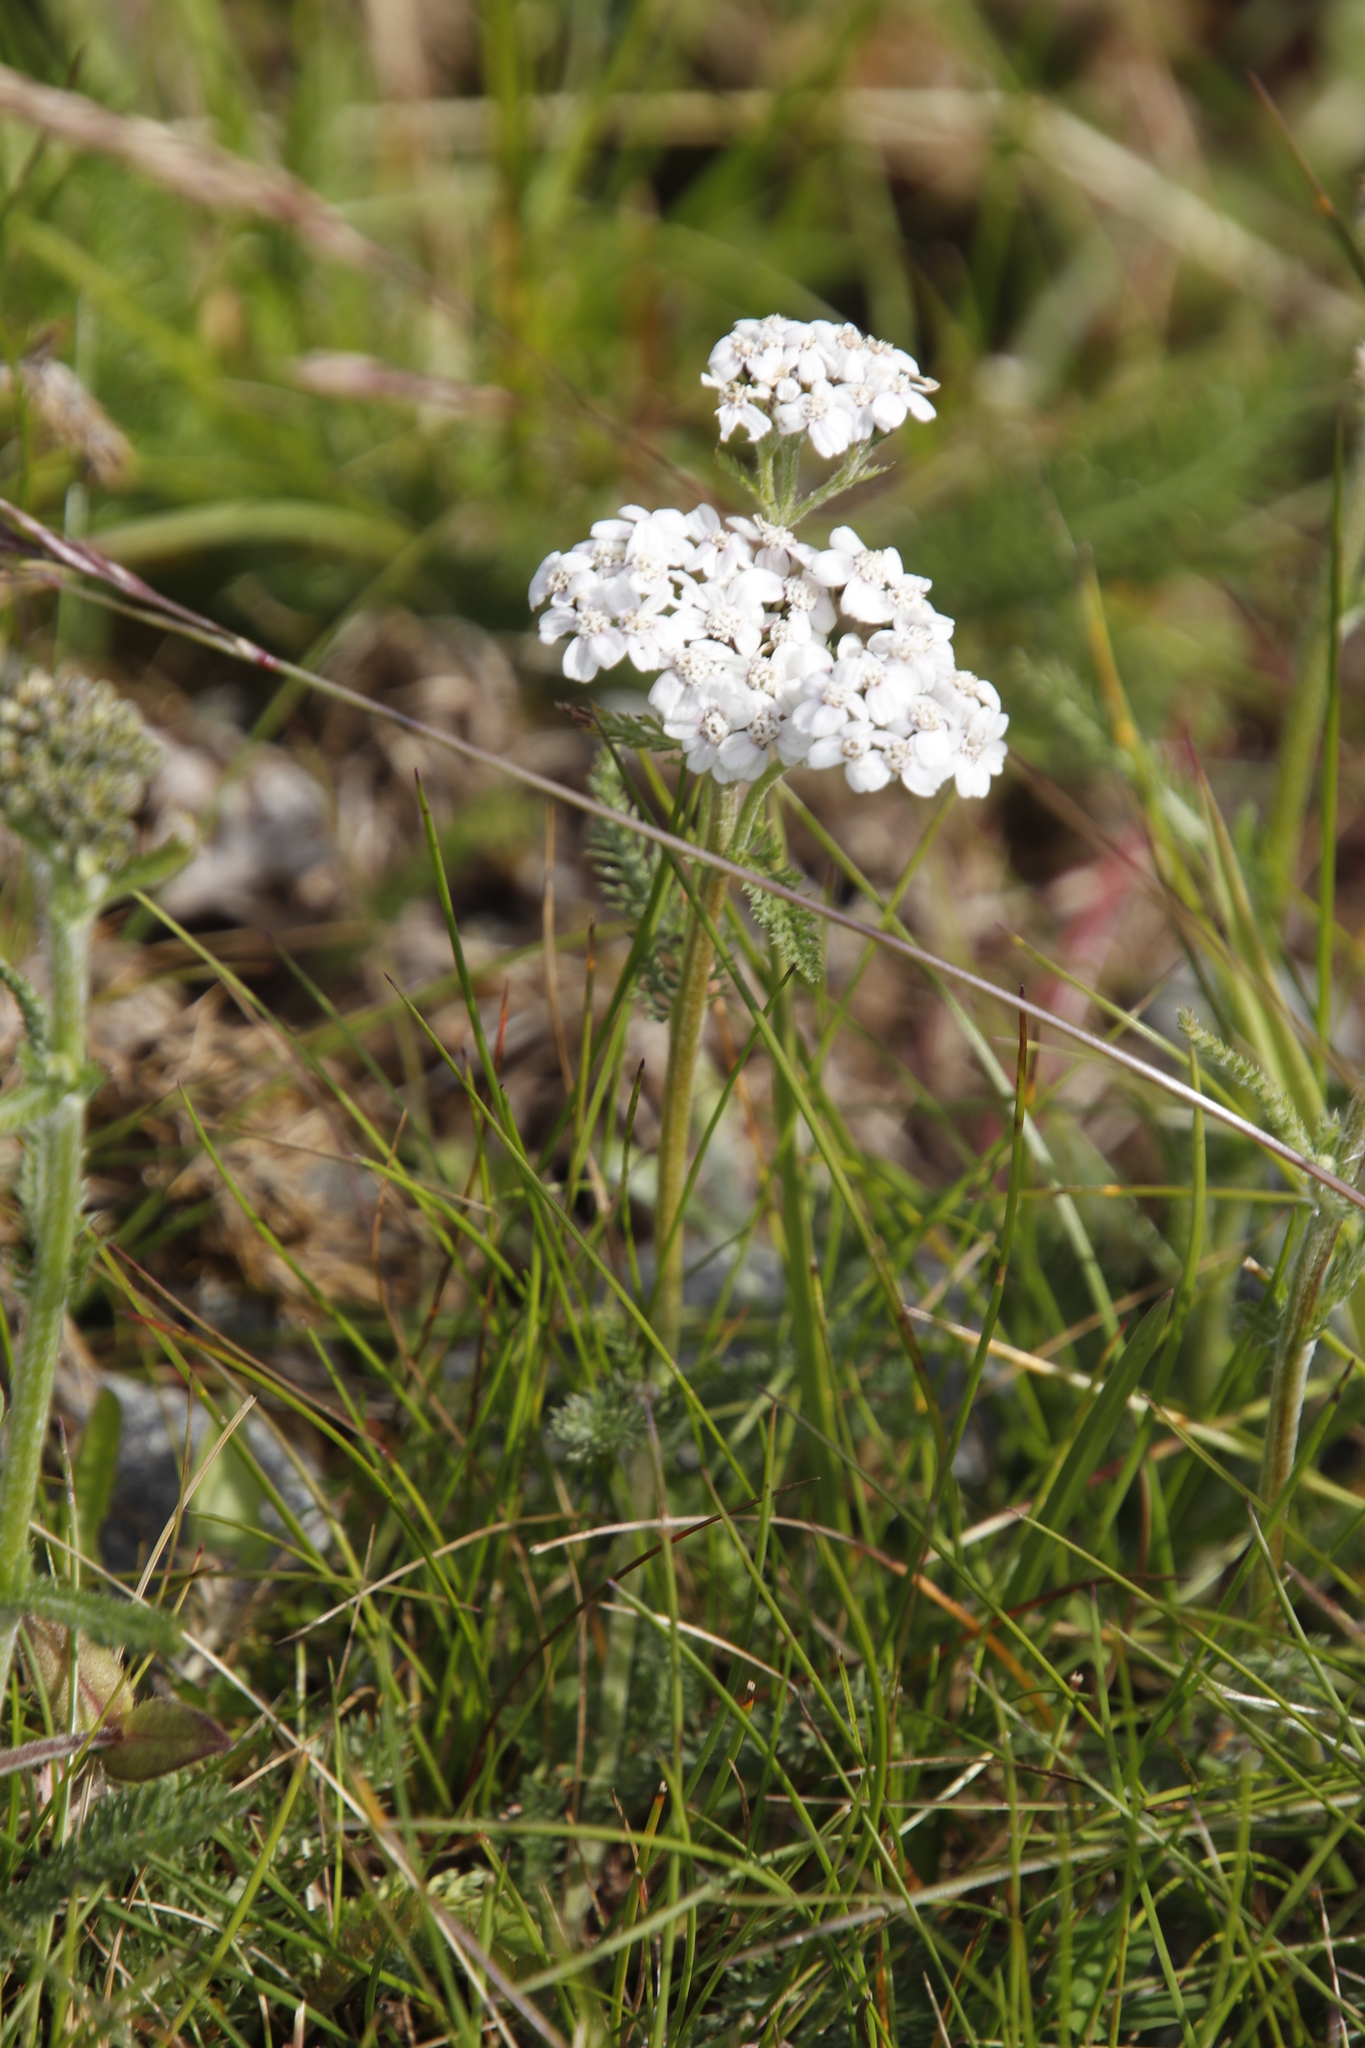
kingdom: Plantae
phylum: Tracheophyta
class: Magnoliopsida
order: Asterales
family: Asteraceae
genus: Achillea
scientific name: Achillea millefolium
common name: Yarrow
